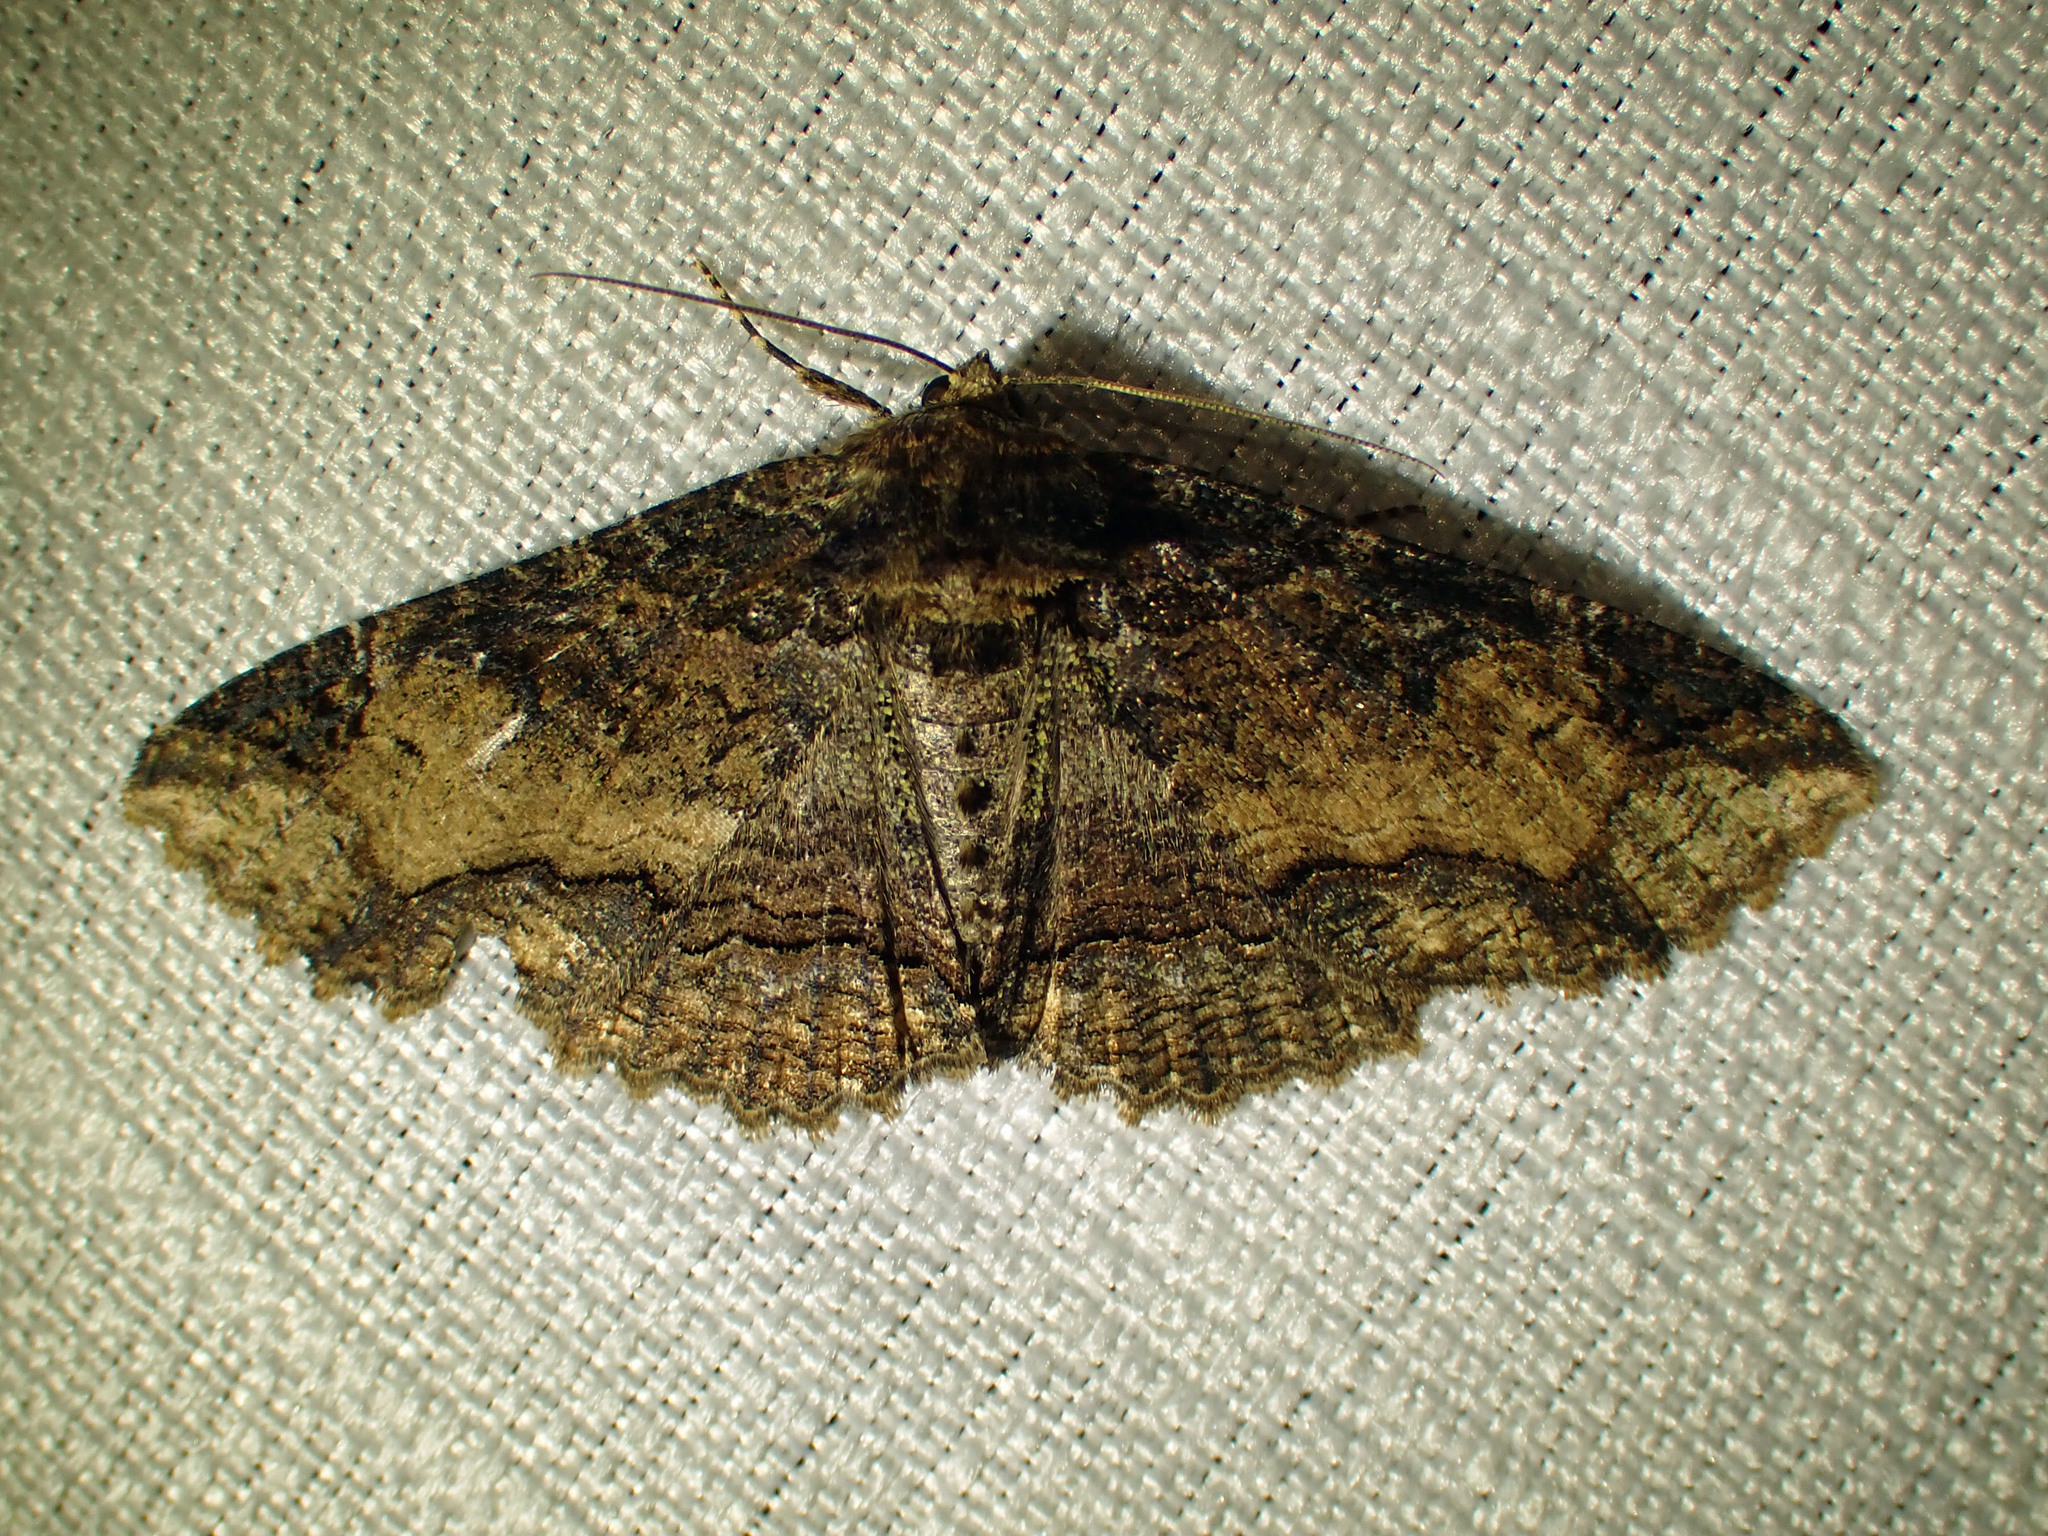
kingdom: Animalia
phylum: Arthropoda
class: Insecta
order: Lepidoptera
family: Erebidae
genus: Zale
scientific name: Zale minerea
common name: Colorful zale moth
